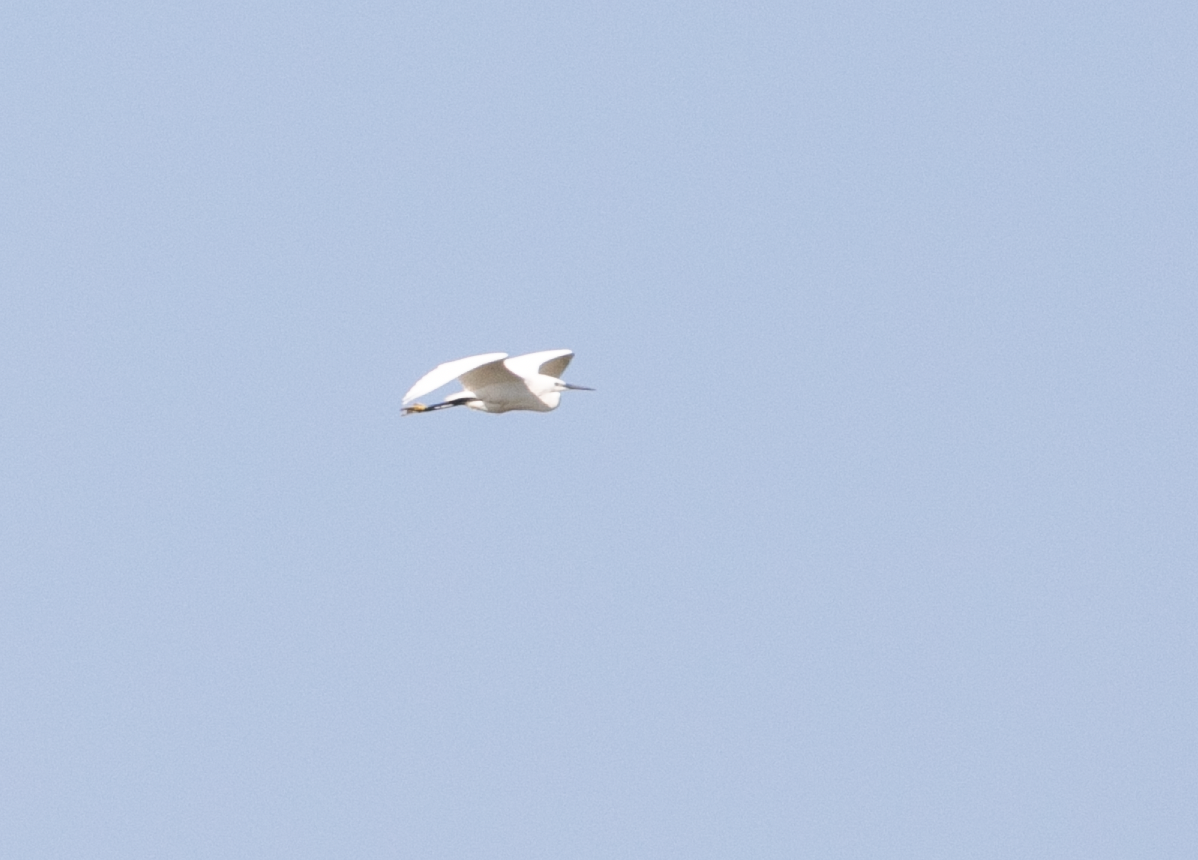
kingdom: Animalia
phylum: Chordata
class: Aves
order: Pelecaniformes
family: Ardeidae
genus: Egretta
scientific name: Egretta garzetta
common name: Little egret
